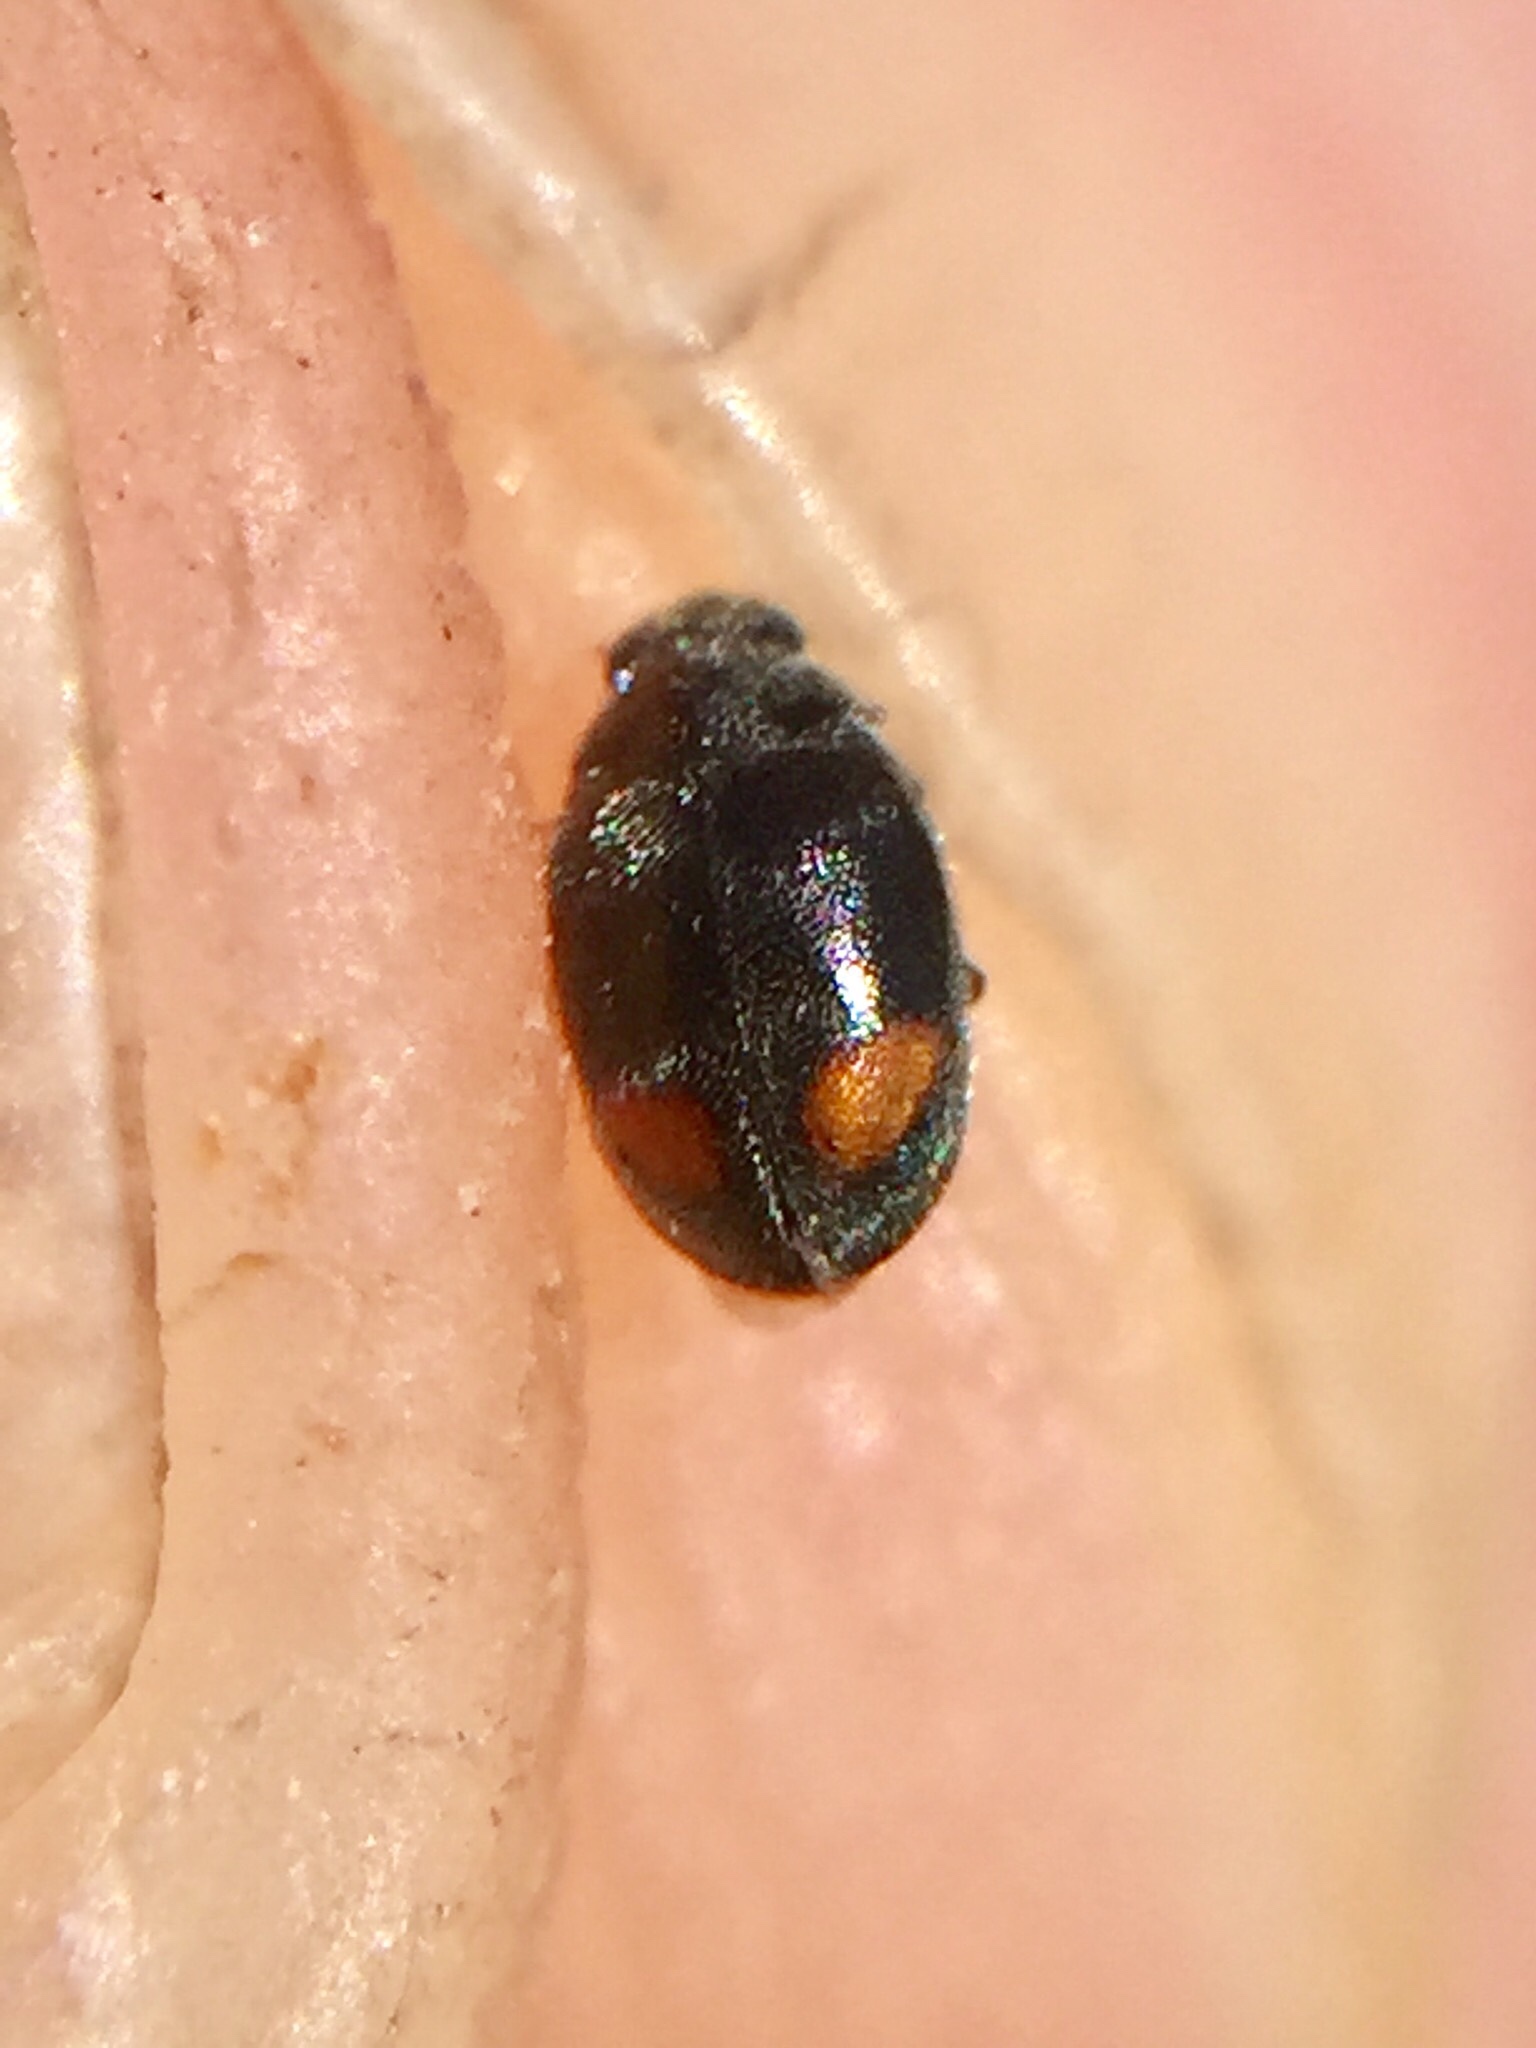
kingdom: Animalia
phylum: Arthropoda
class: Insecta
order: Coleoptera
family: Coccinellidae
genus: Nephus
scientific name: Nephus binaevatus
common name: Ladybird beetle
